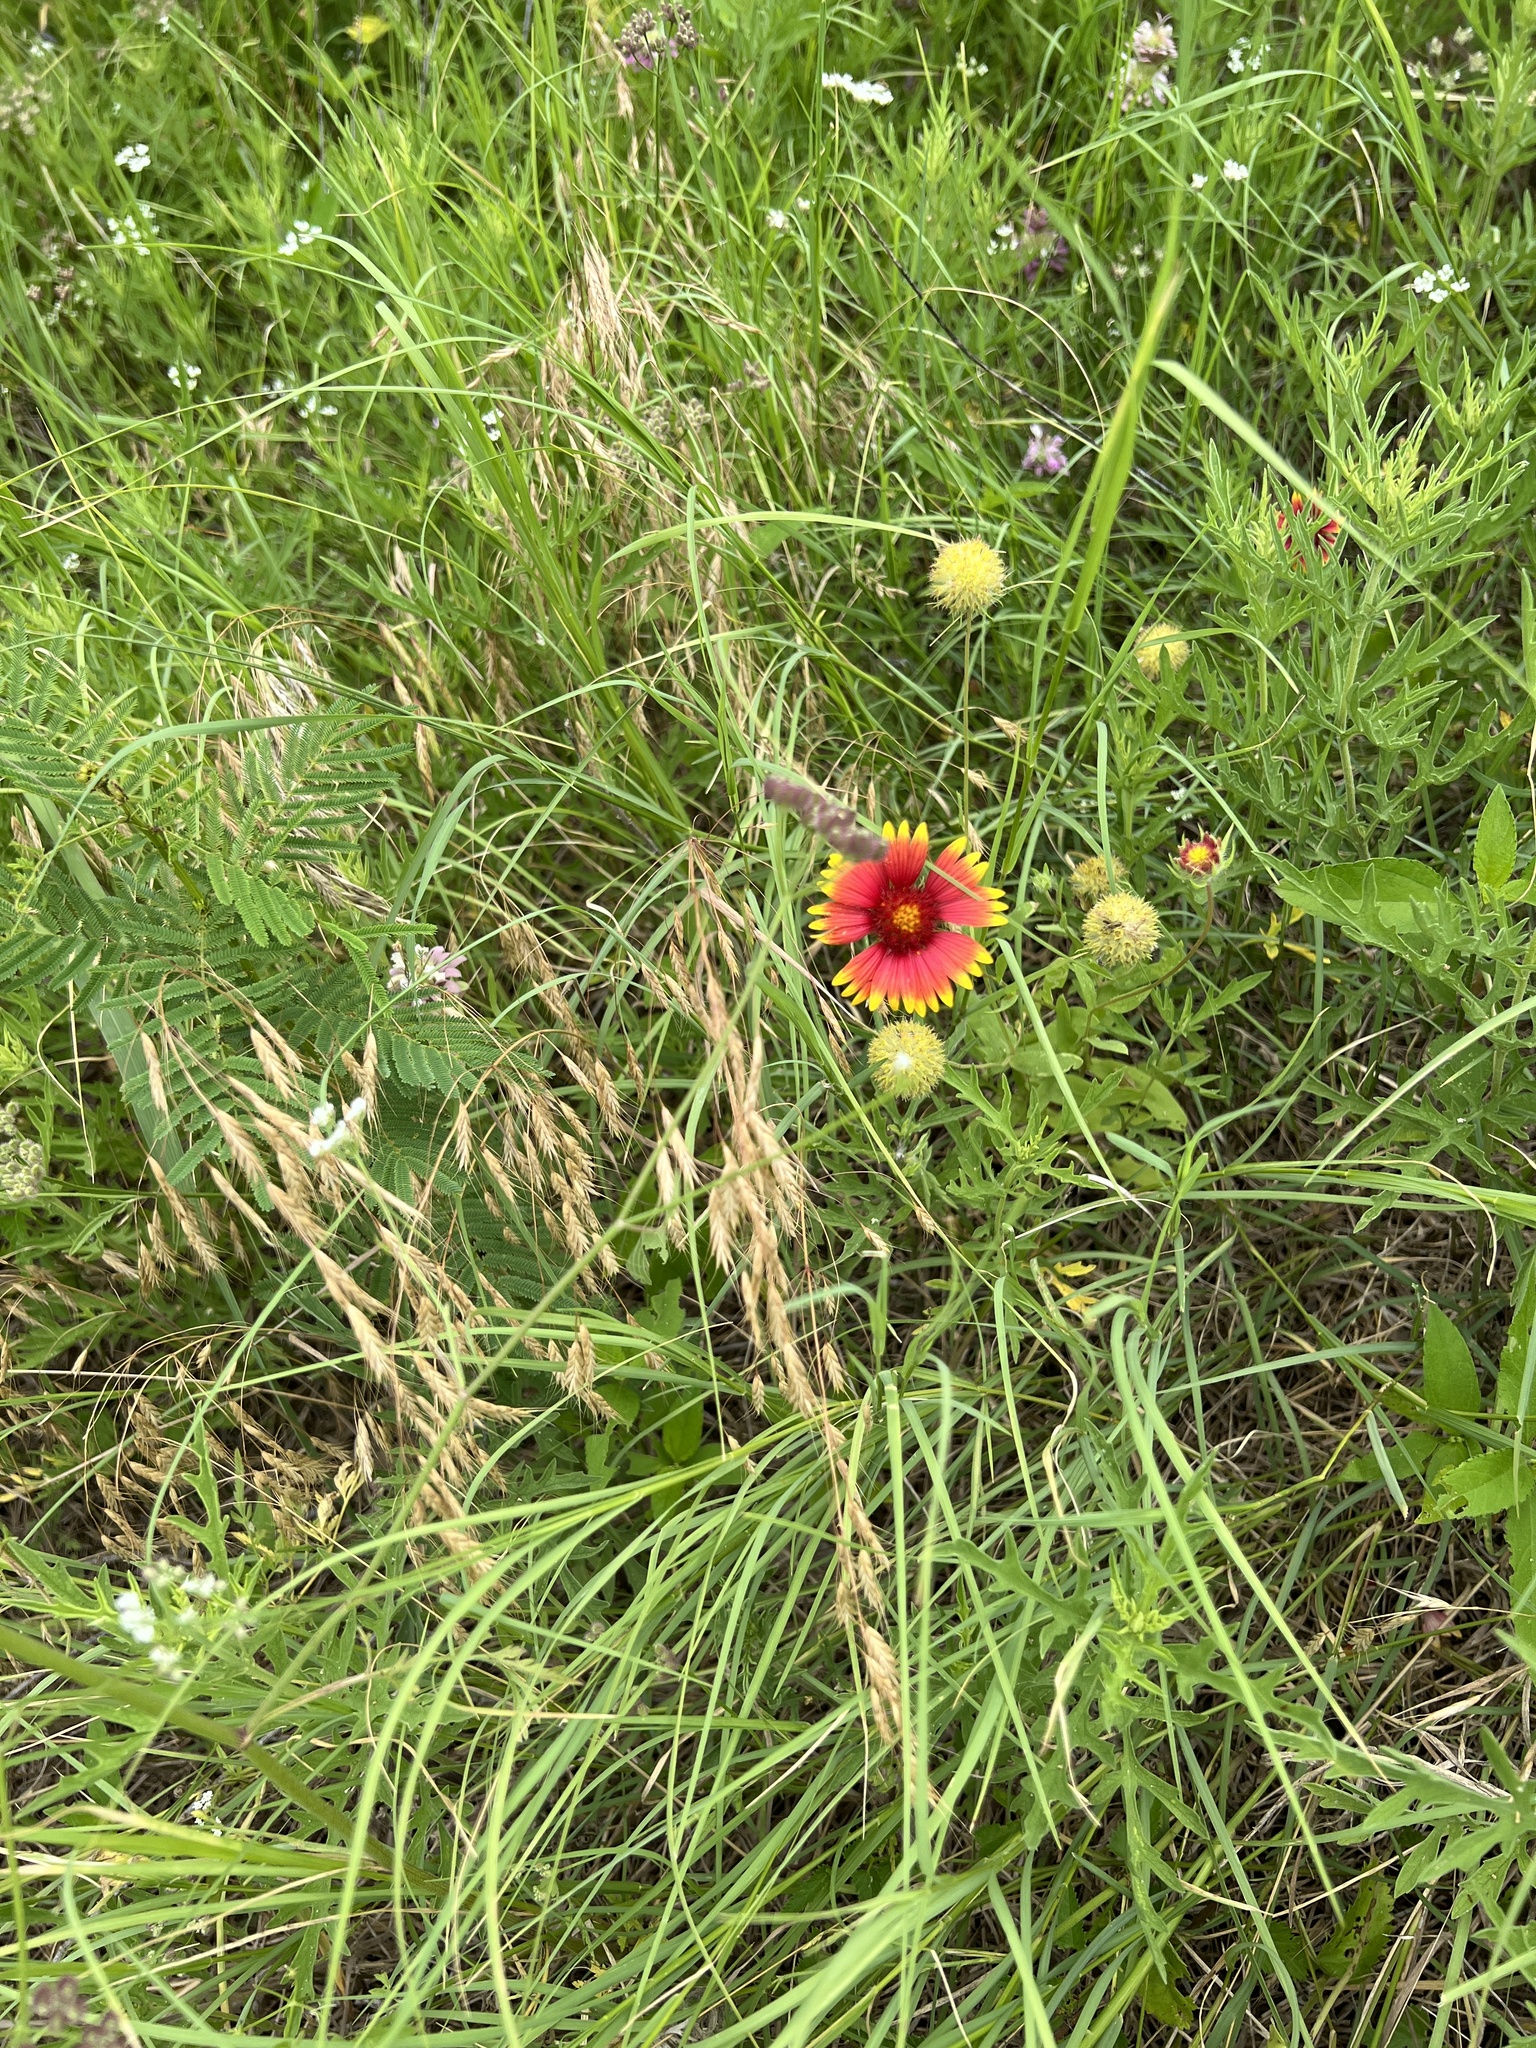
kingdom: Plantae
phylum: Tracheophyta
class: Magnoliopsida
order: Asterales
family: Asteraceae
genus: Gaillardia
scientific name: Gaillardia pulchella
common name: Firewheel
